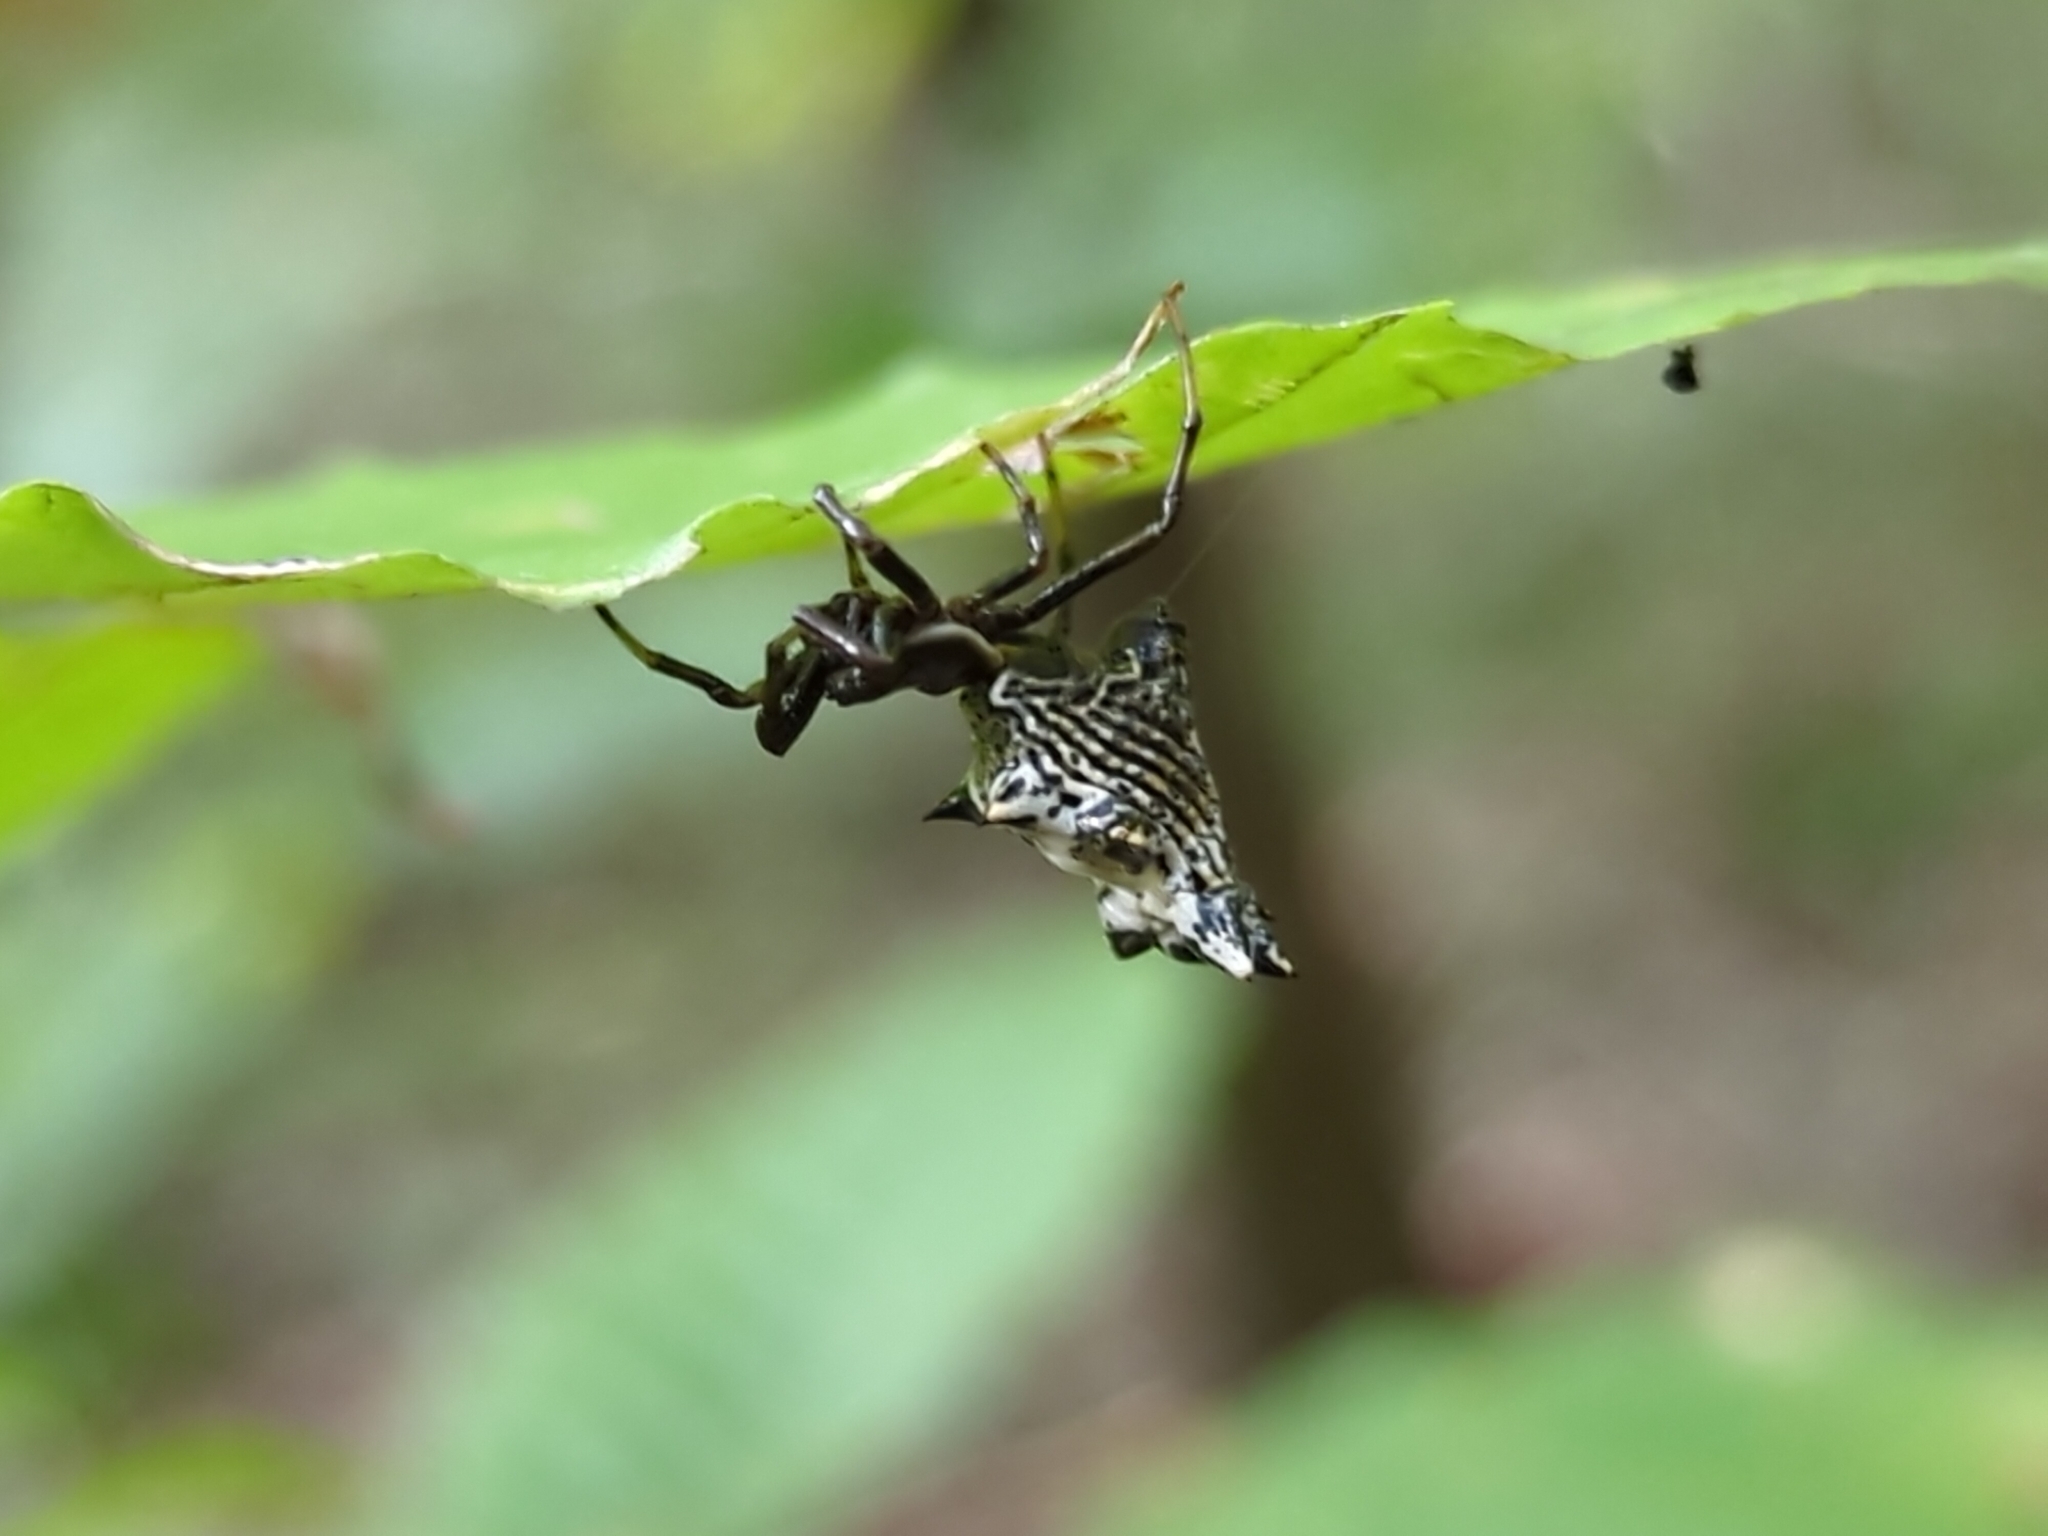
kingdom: Animalia
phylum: Arthropoda
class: Arachnida
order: Araneae
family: Araneidae
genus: Micrathena
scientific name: Micrathena gracilis
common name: Orb weavers
